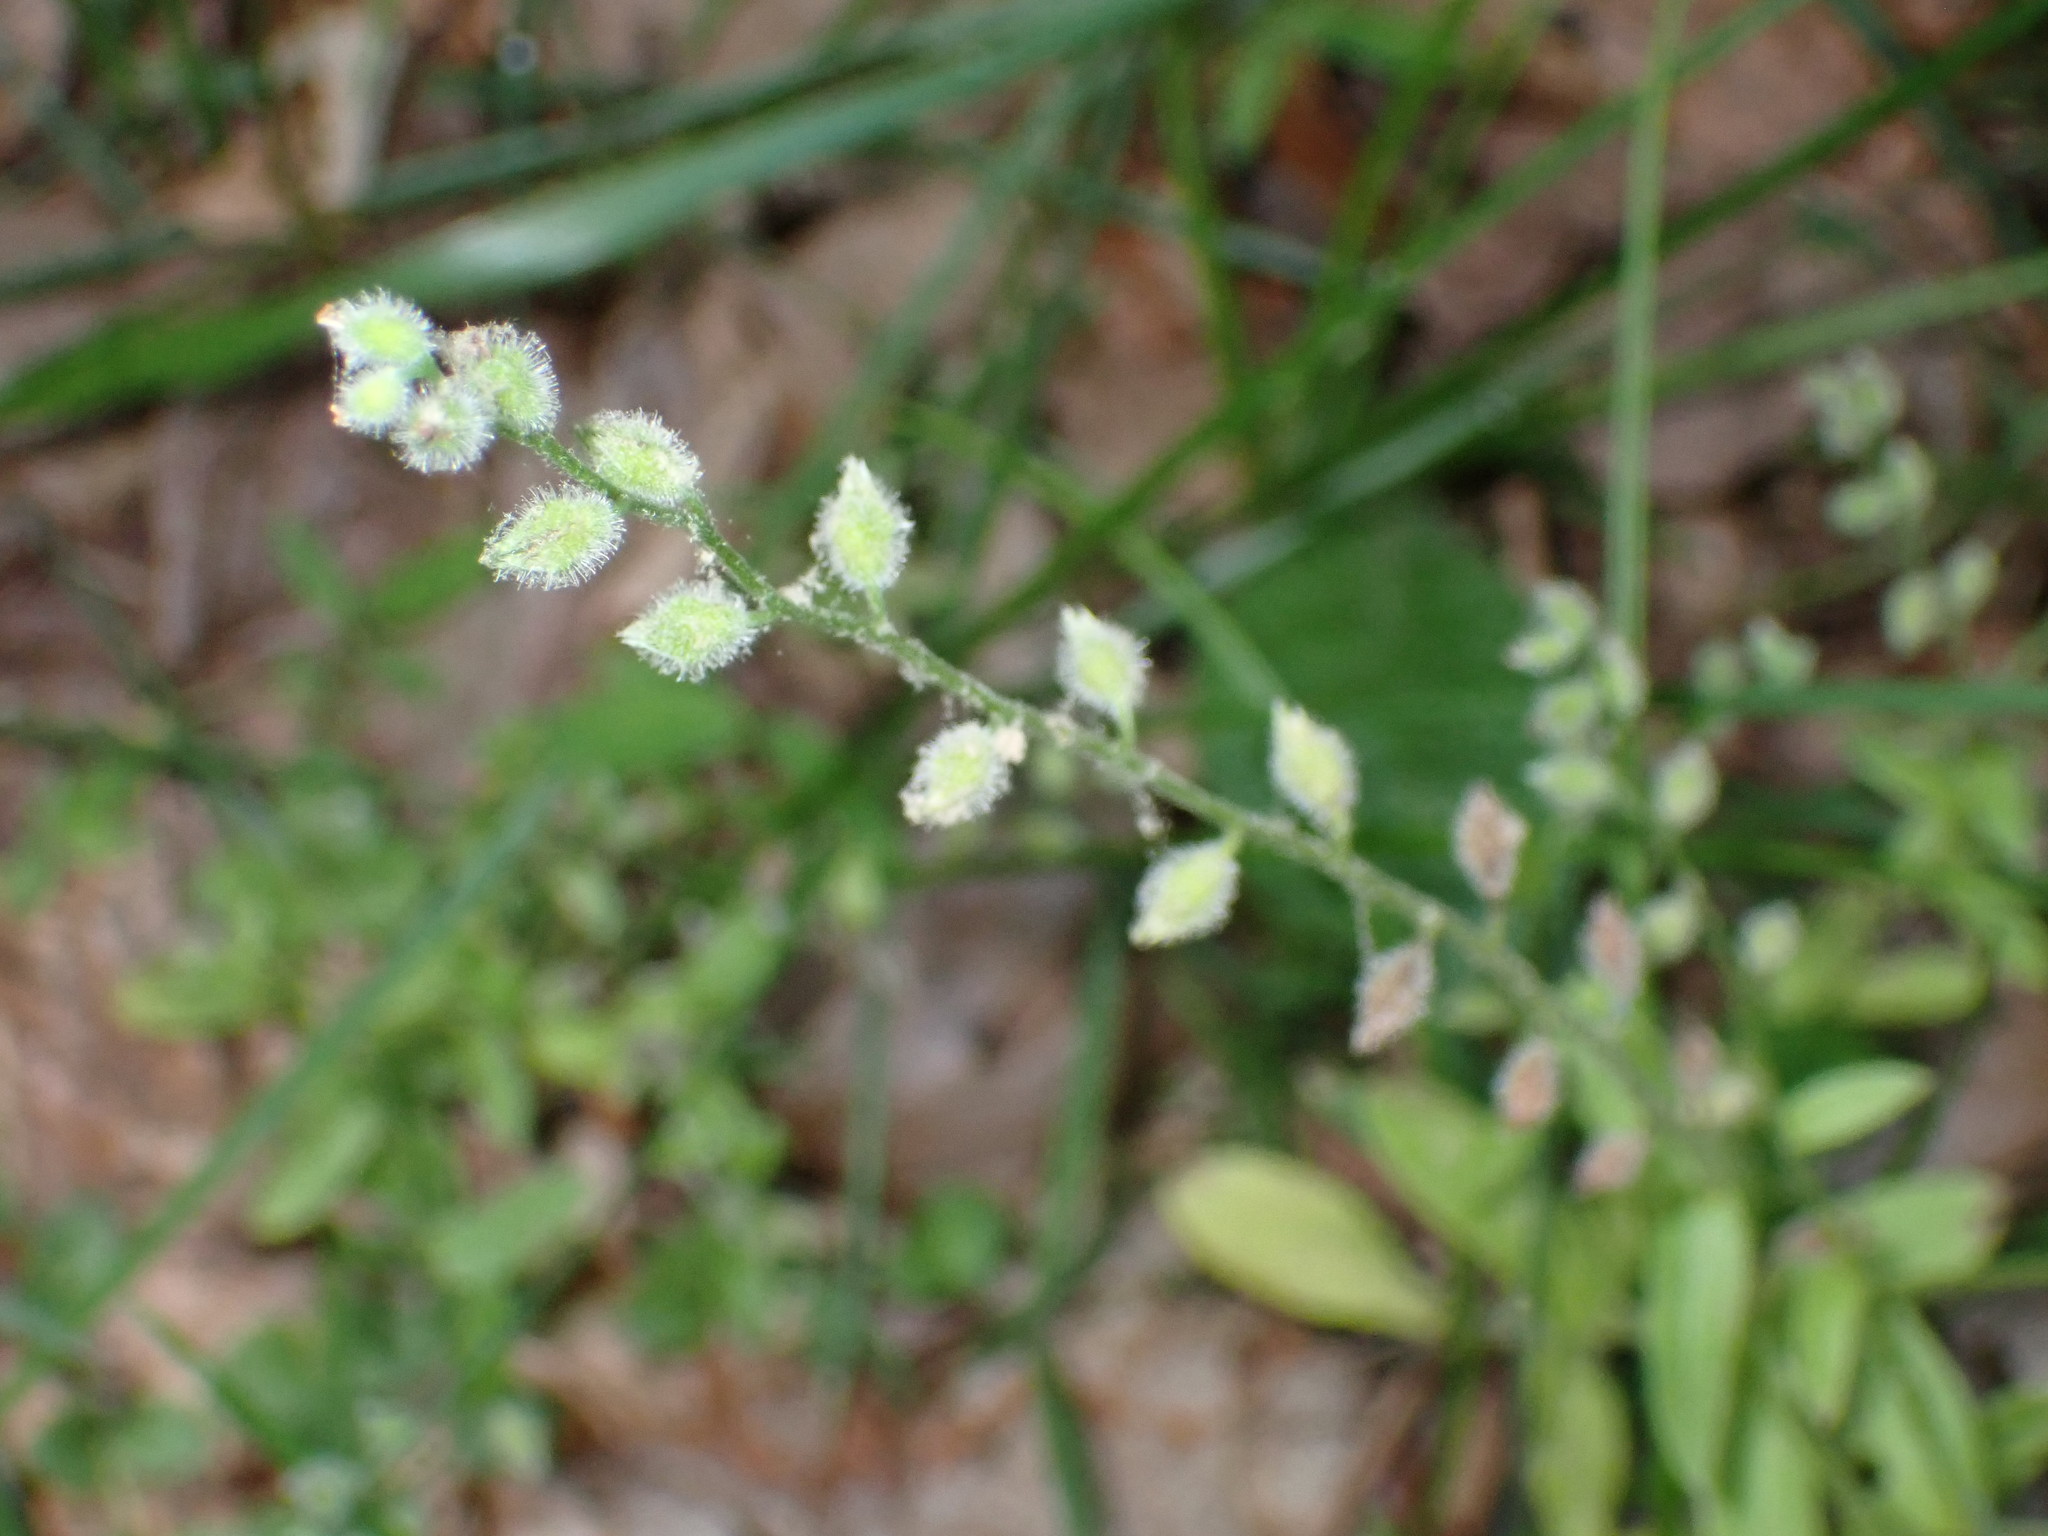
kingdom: Plantae
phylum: Tracheophyta
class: Magnoliopsida
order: Boraginales
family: Boraginaceae
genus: Myosotis
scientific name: Myosotis macrosperma
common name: Large-seed forget-me-not
